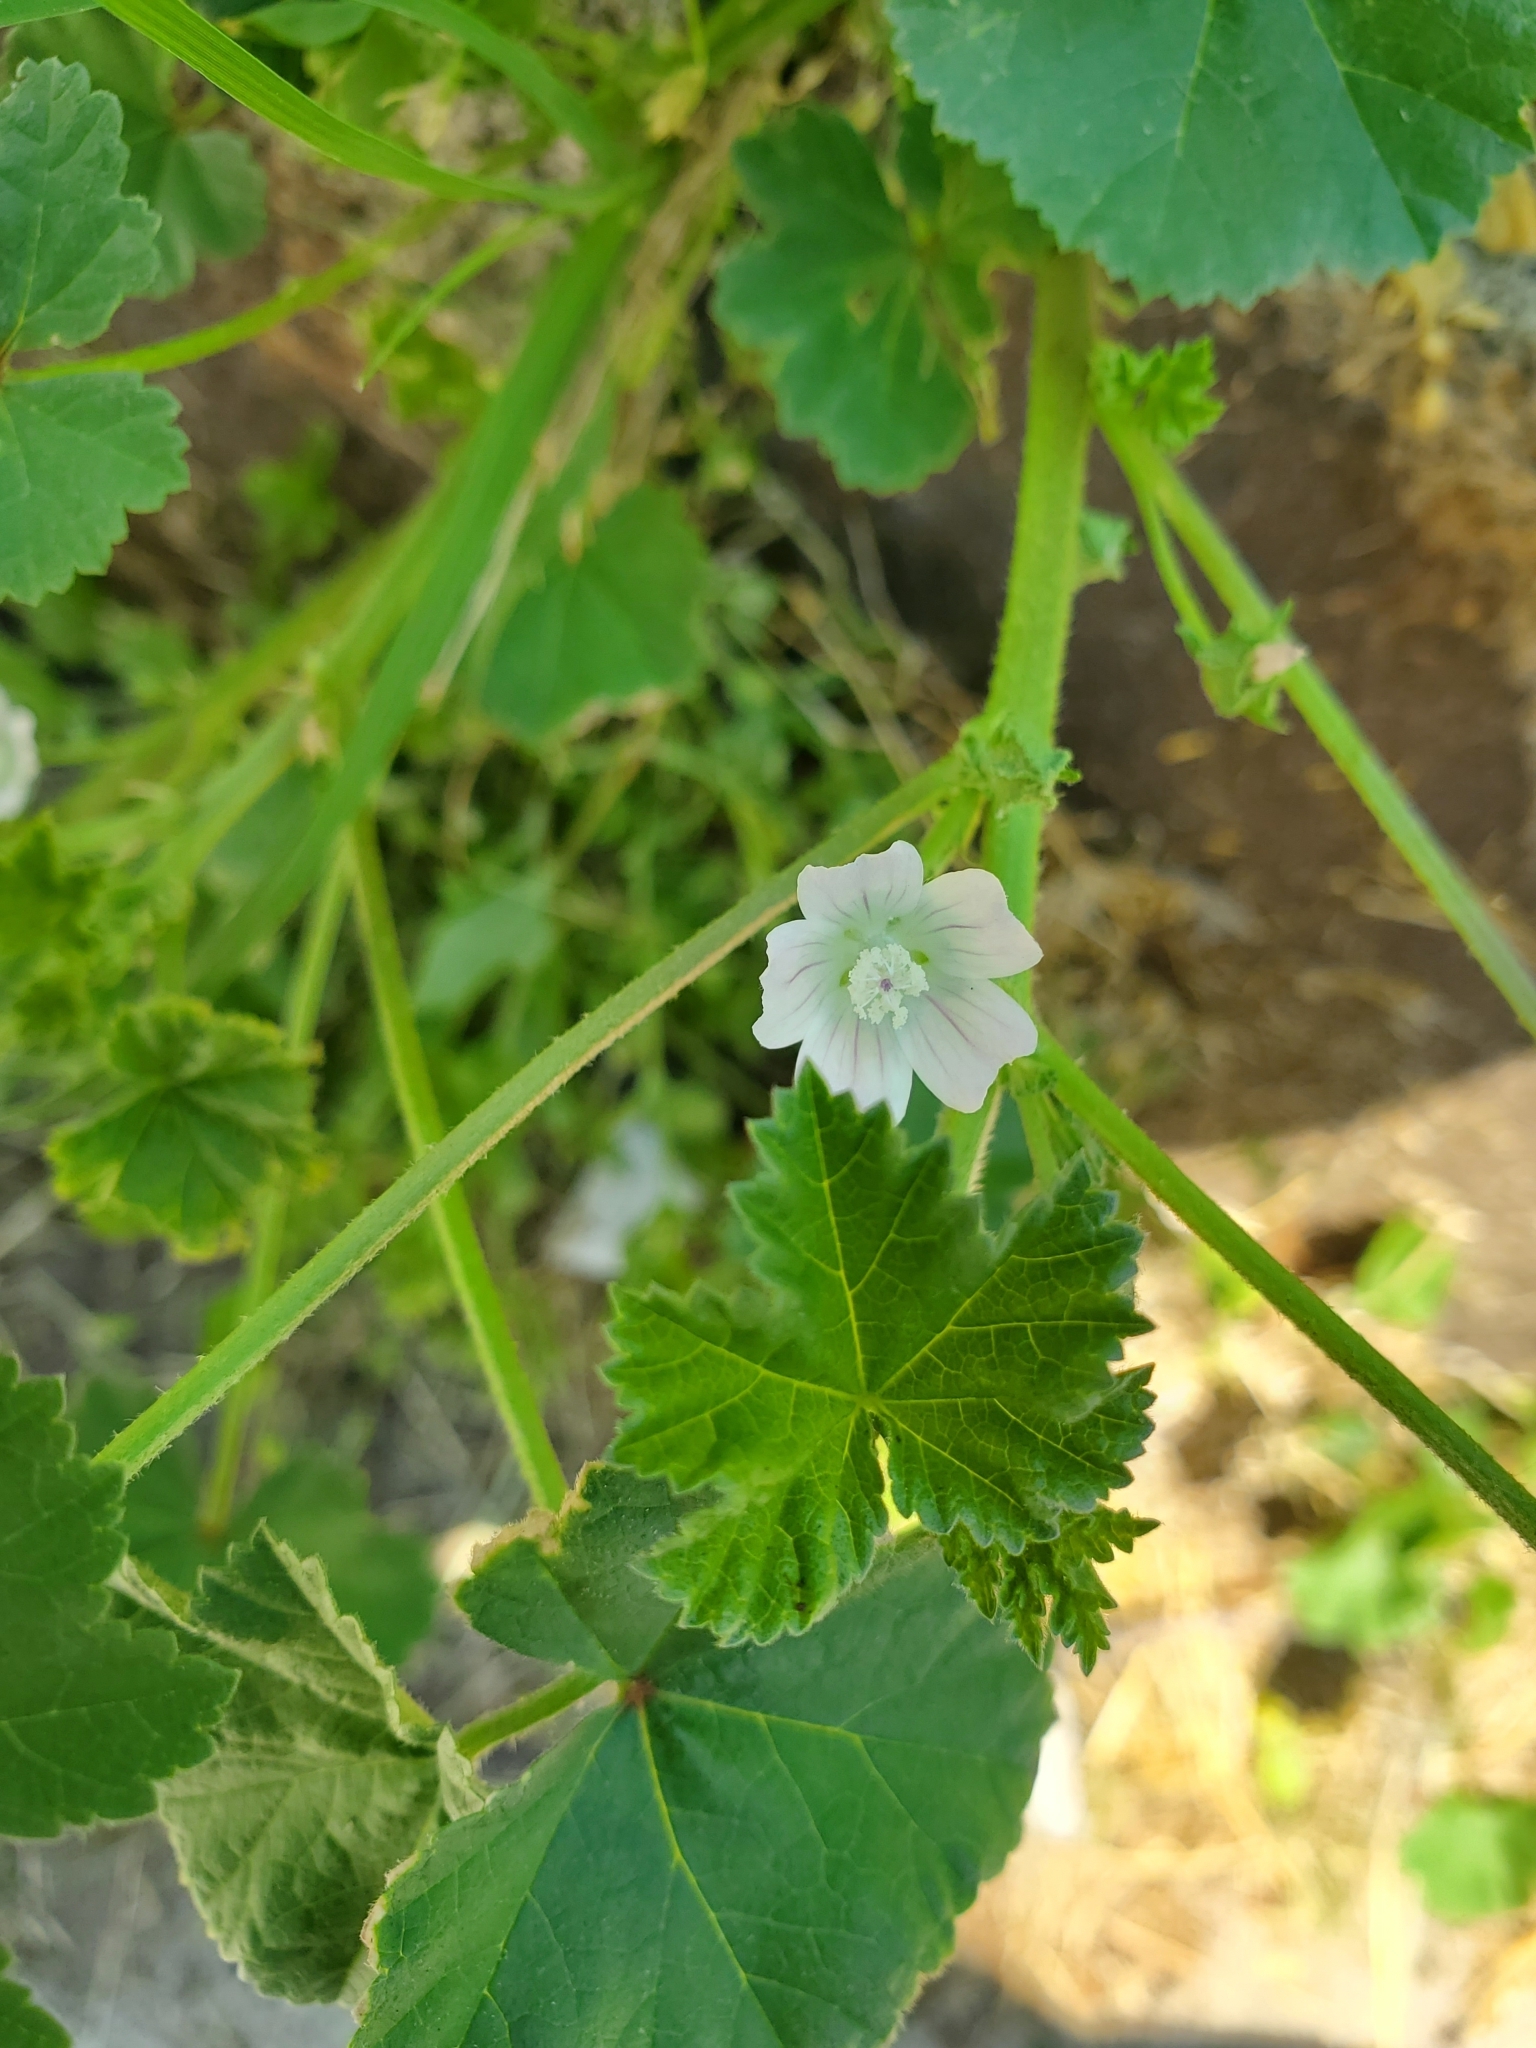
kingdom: Plantae
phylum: Tracheophyta
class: Magnoliopsida
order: Malvales
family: Malvaceae
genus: Malva
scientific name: Malva neglecta
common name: Common mallow
